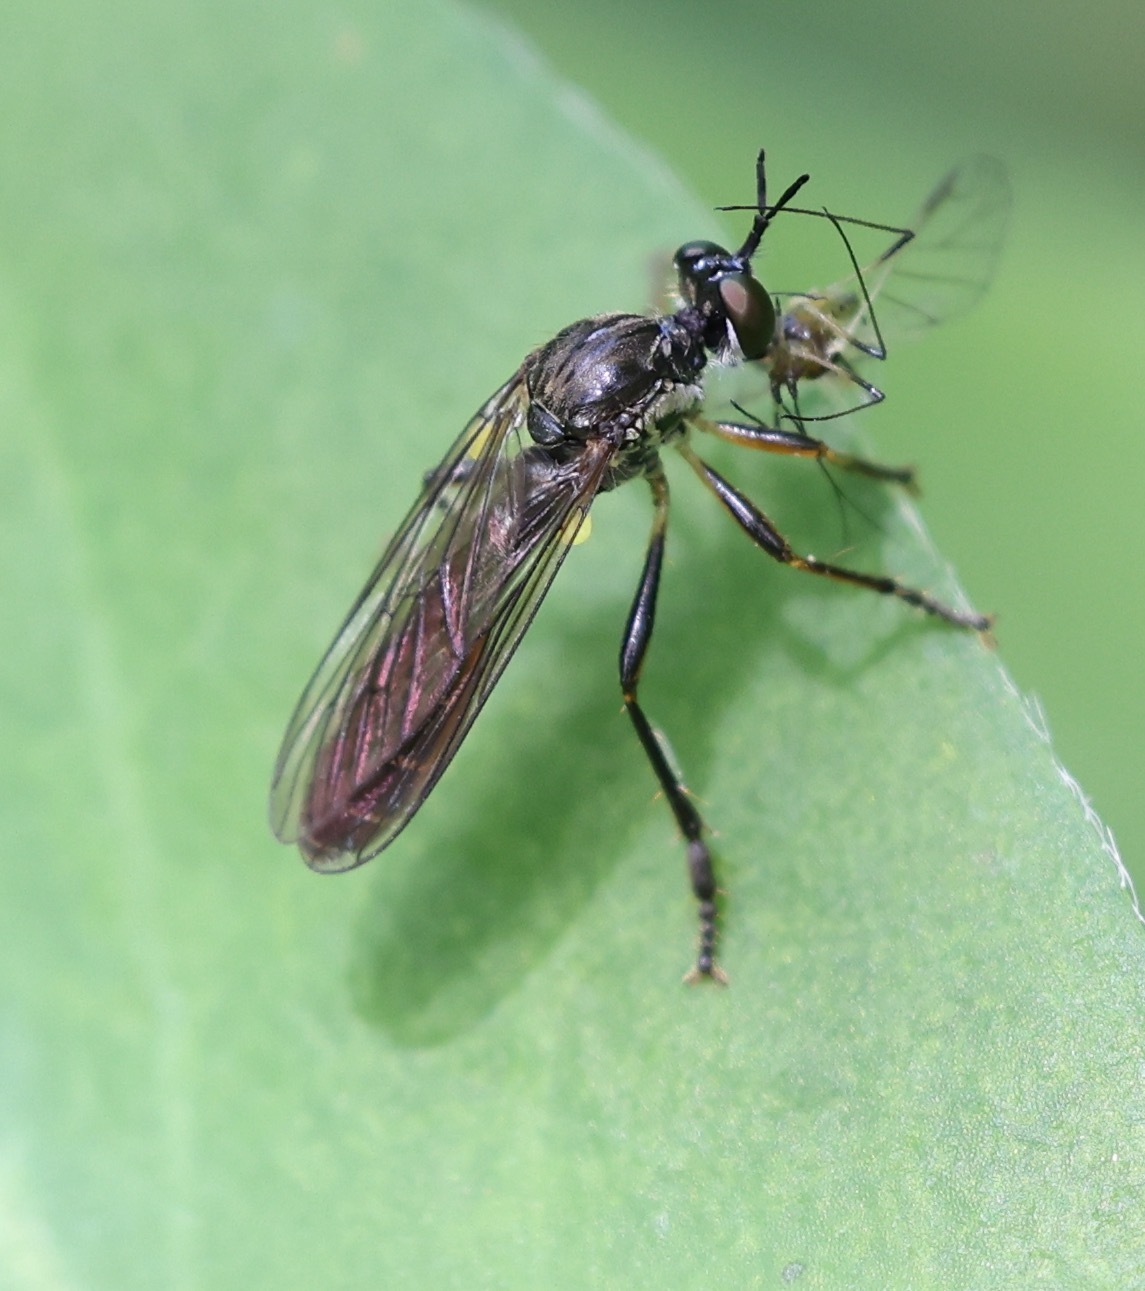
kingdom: Animalia
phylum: Arthropoda
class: Insecta
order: Diptera
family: Asilidae
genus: Dioctria
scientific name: Dioctria hyalipennis
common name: Stripe-legged robberfly
